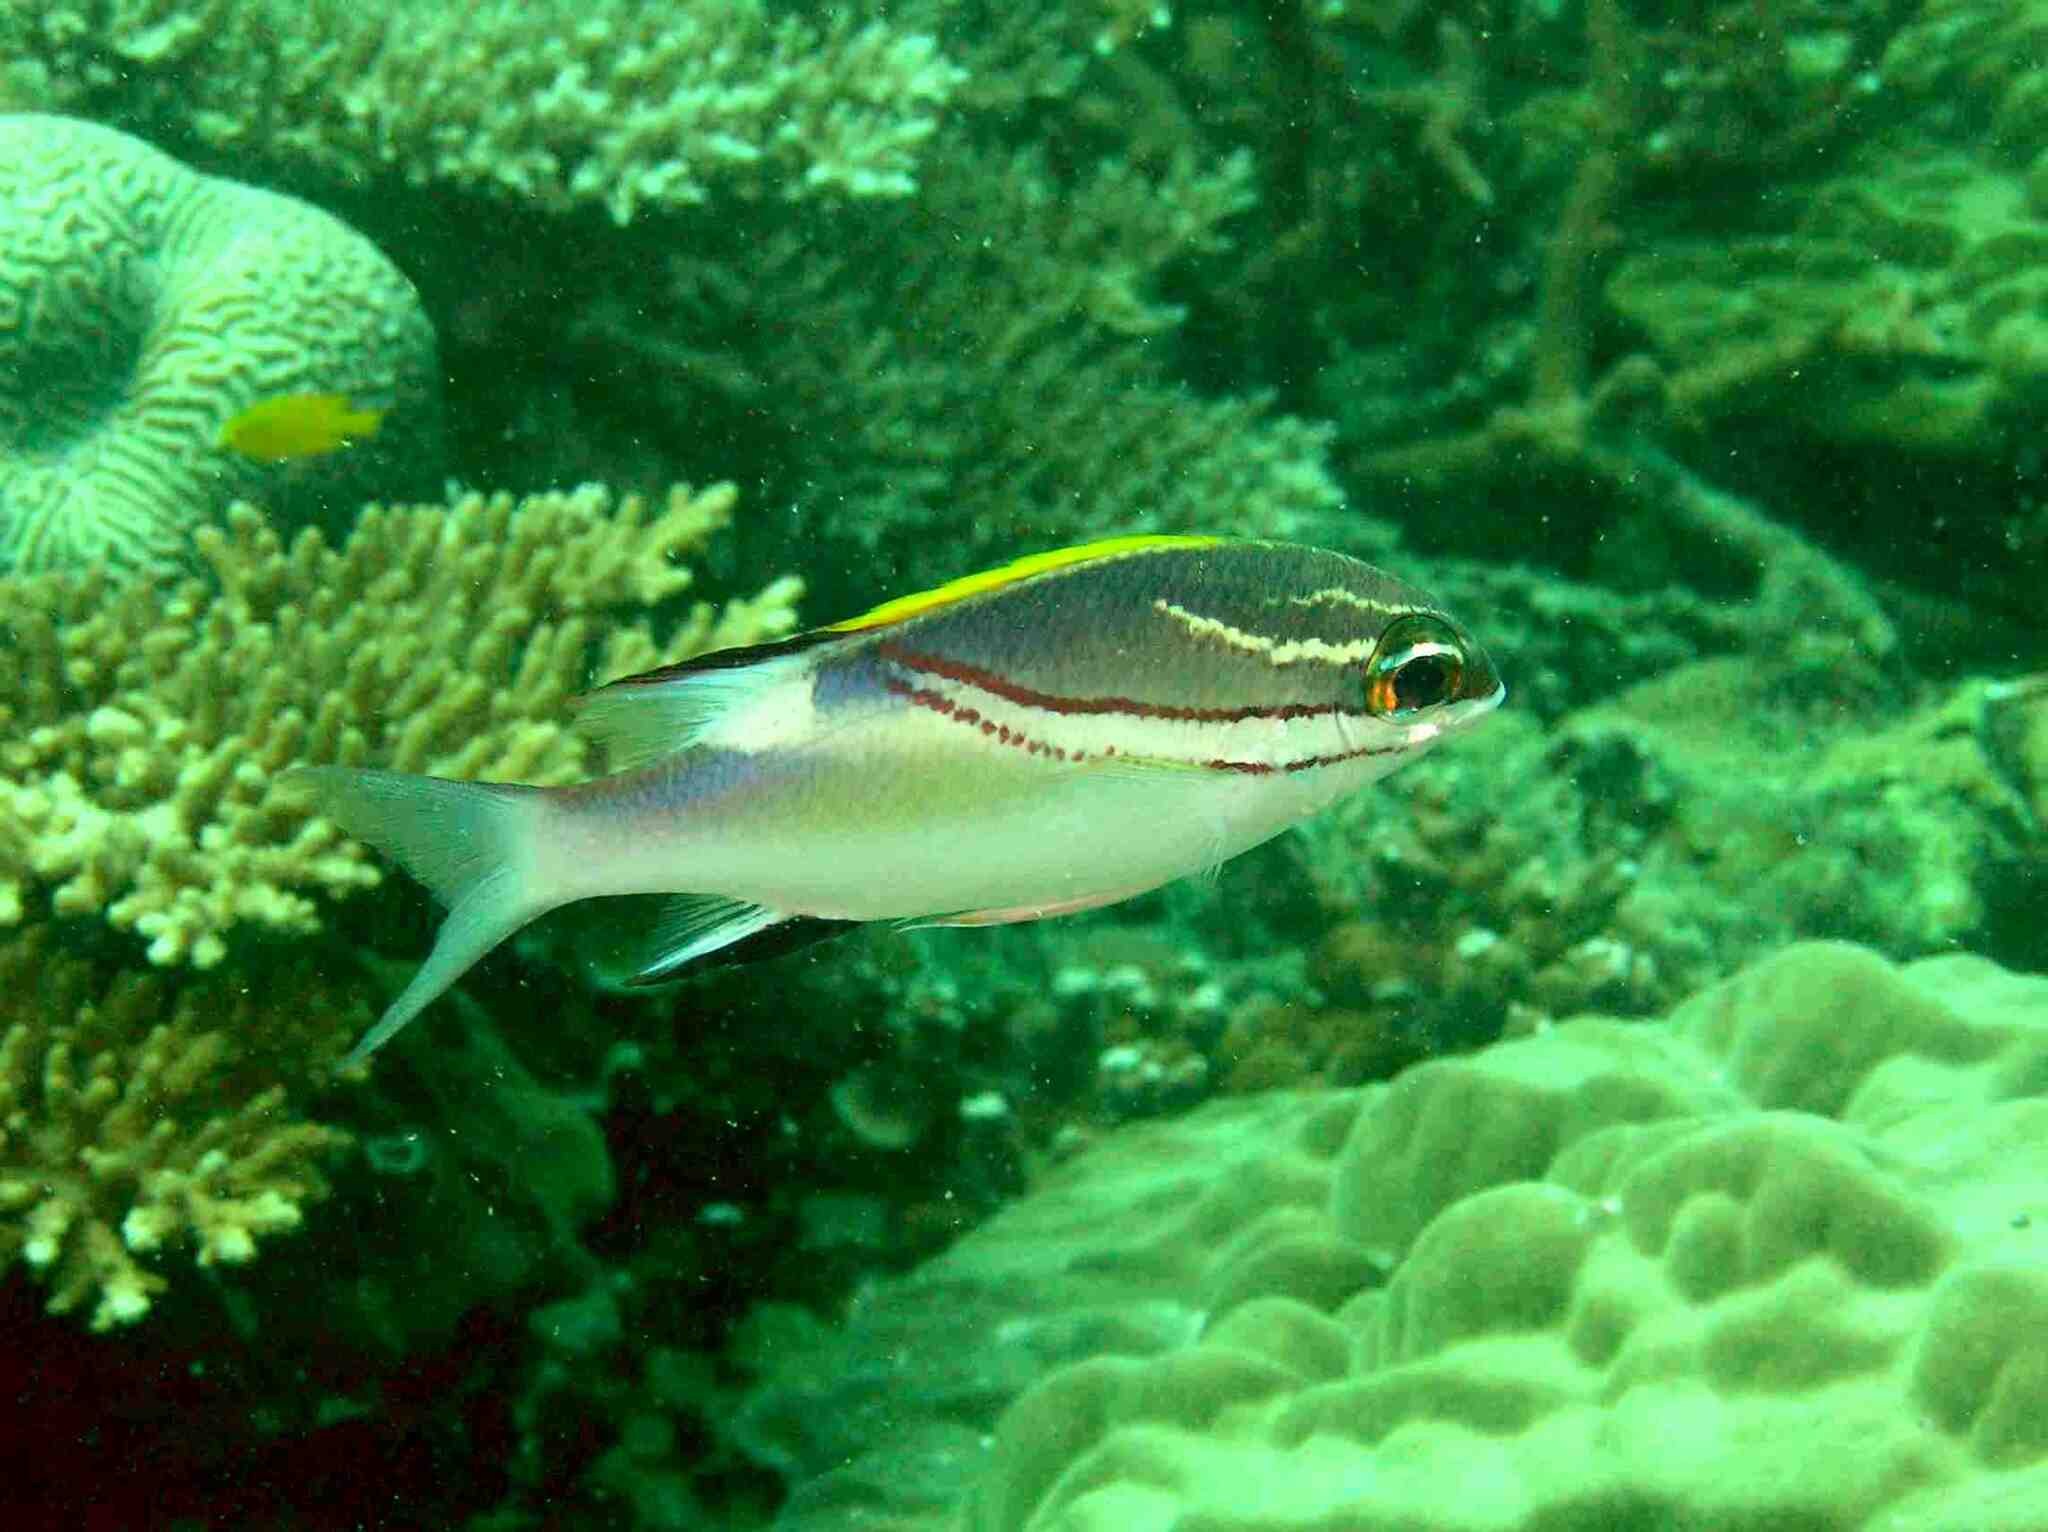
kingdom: Animalia
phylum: Chordata
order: Perciformes
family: Nemipteridae
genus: Scolopsis
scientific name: Scolopsis bilineata
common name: Two-lined monocle bream
